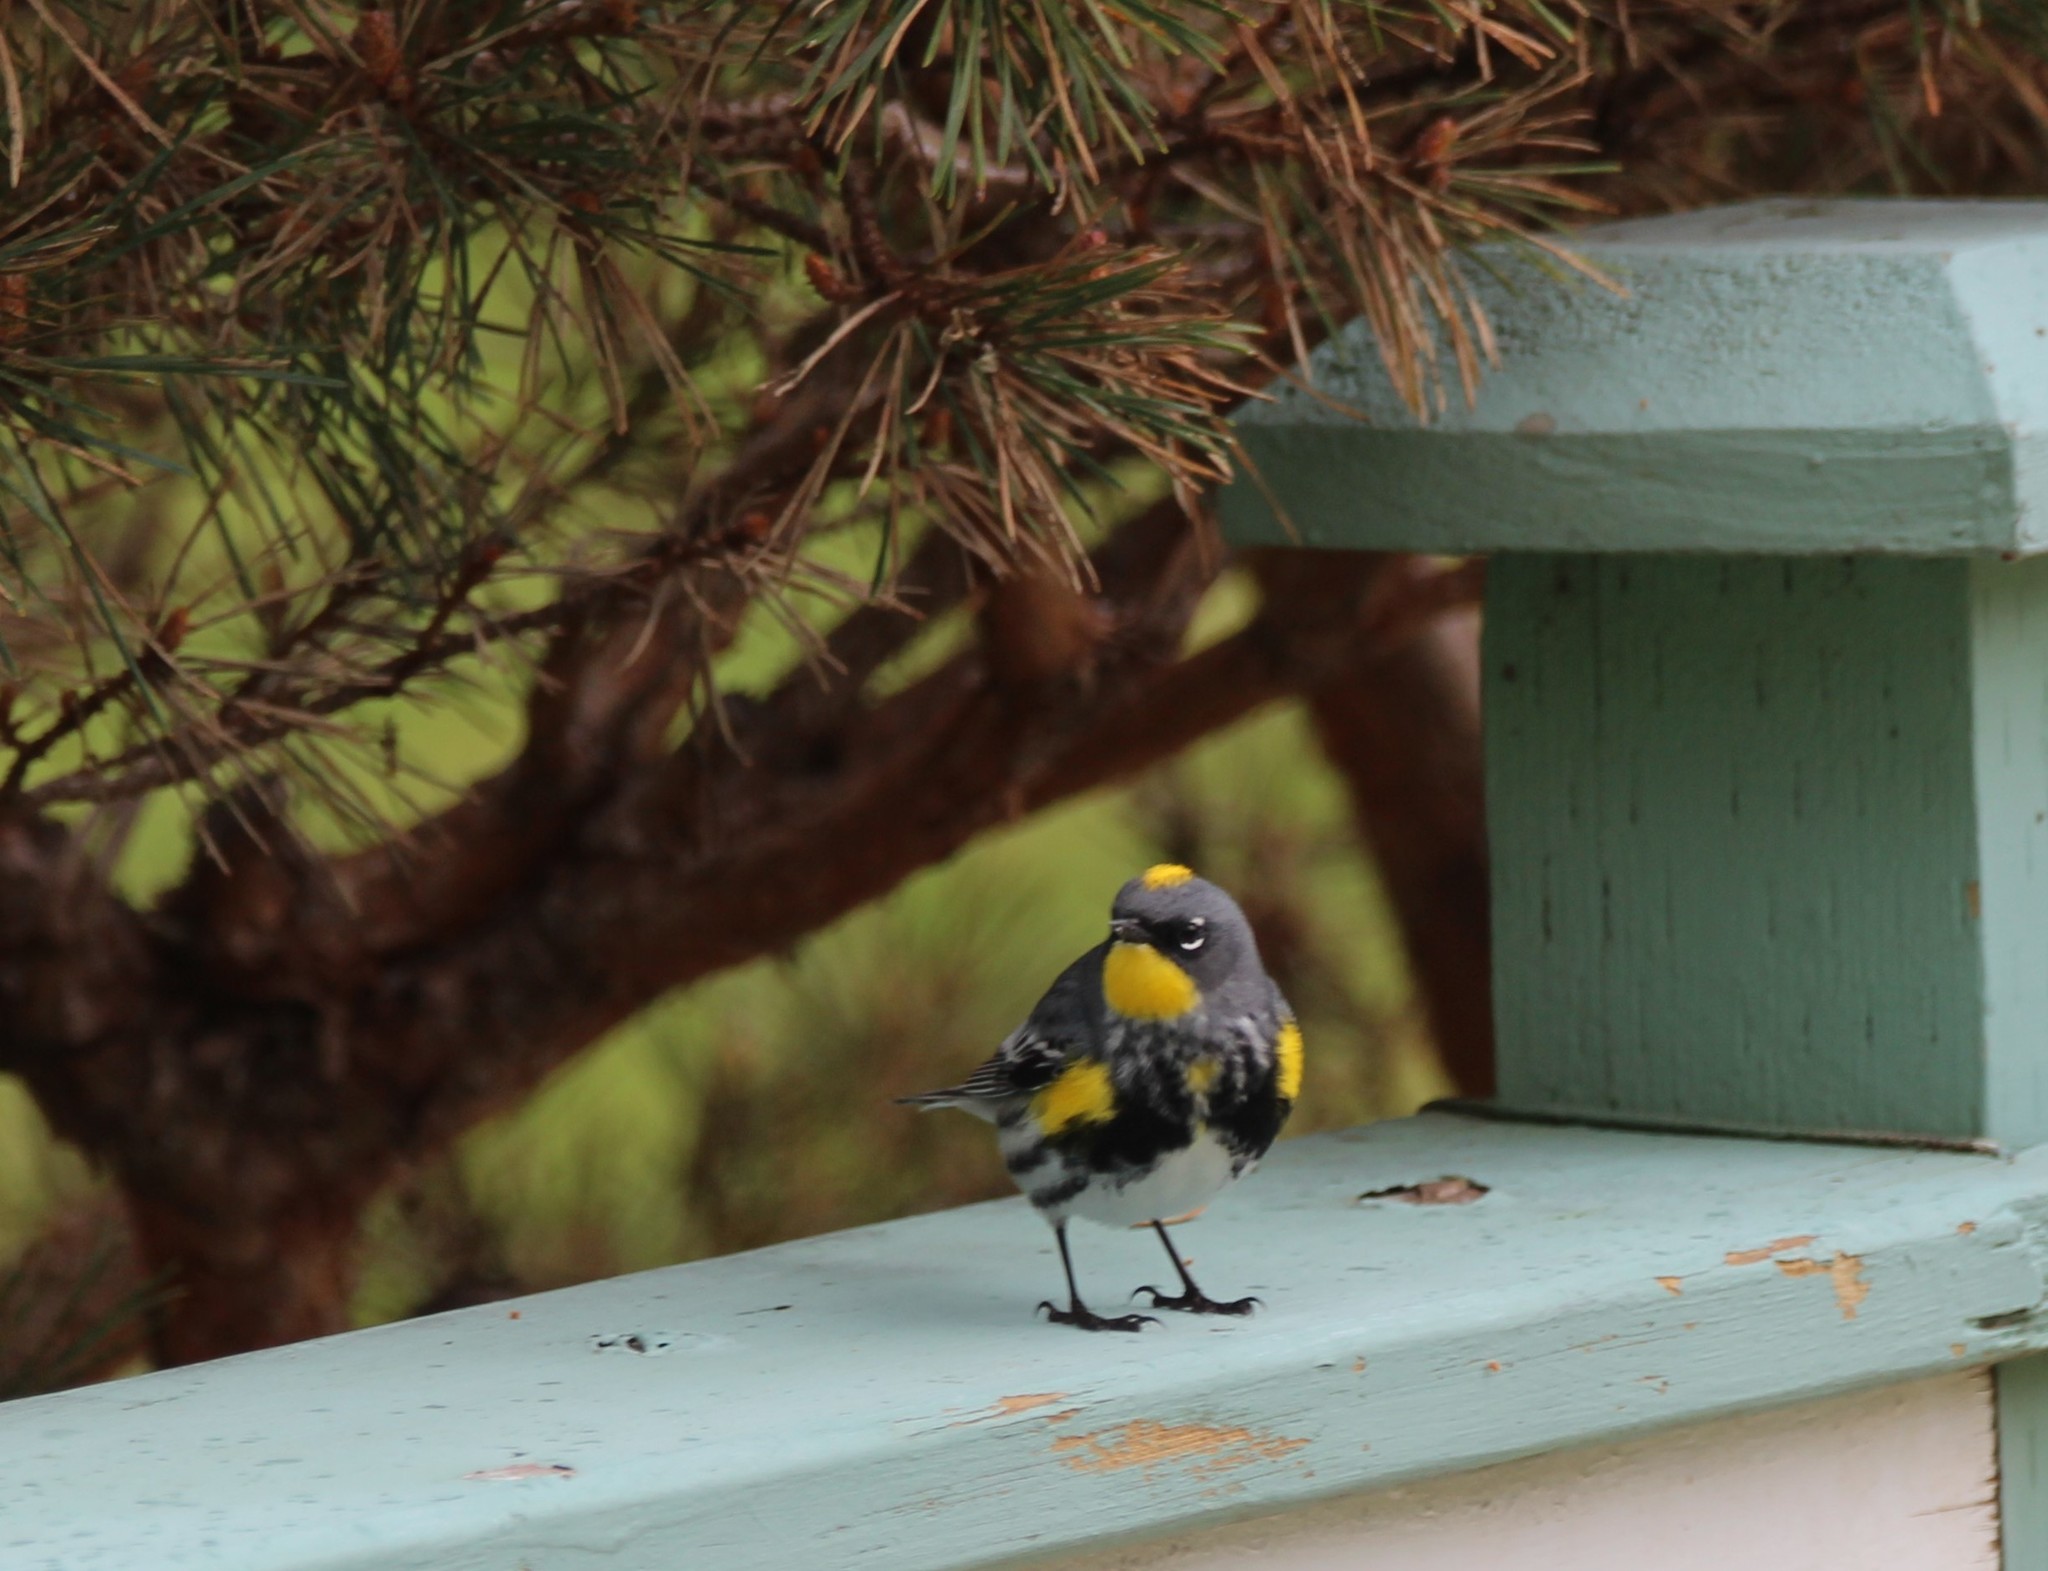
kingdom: Animalia
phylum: Chordata
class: Aves
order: Passeriformes
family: Parulidae
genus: Setophaga
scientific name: Setophaga auduboni
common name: Audubon's warbler
